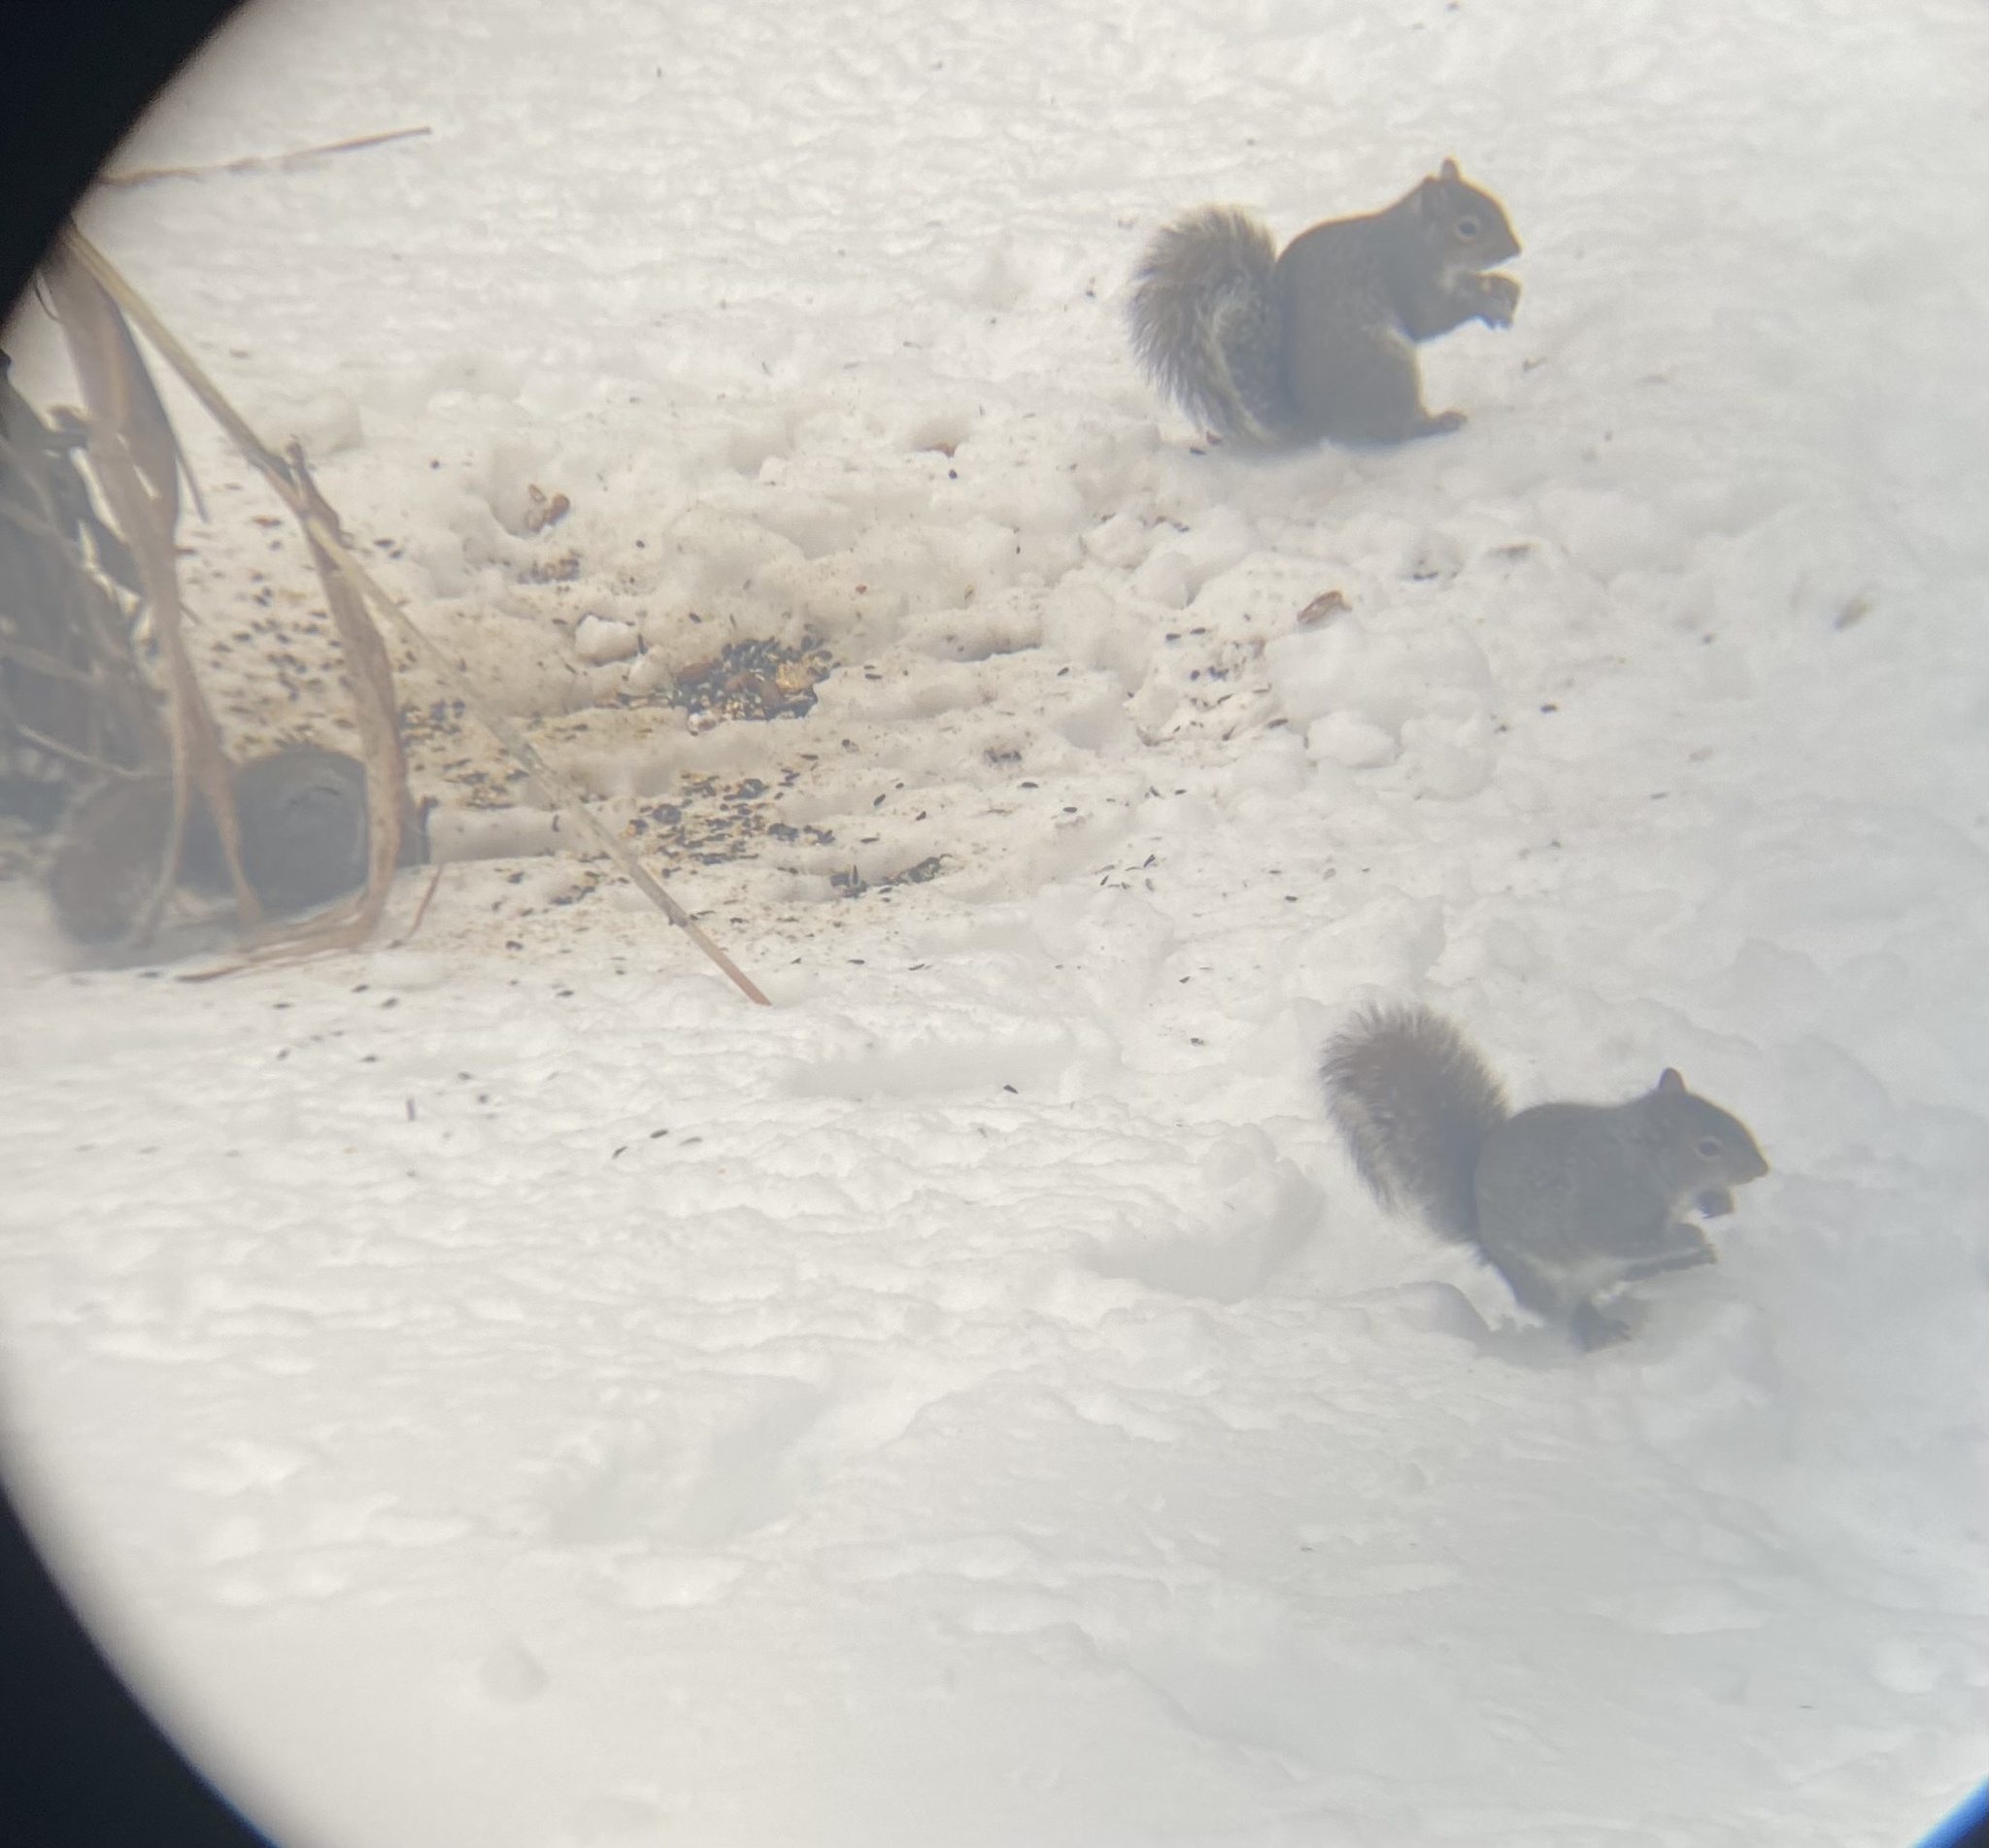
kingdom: Animalia
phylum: Chordata
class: Mammalia
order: Rodentia
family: Sciuridae
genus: Sciurus
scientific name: Sciurus carolinensis
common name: Eastern gray squirrel
